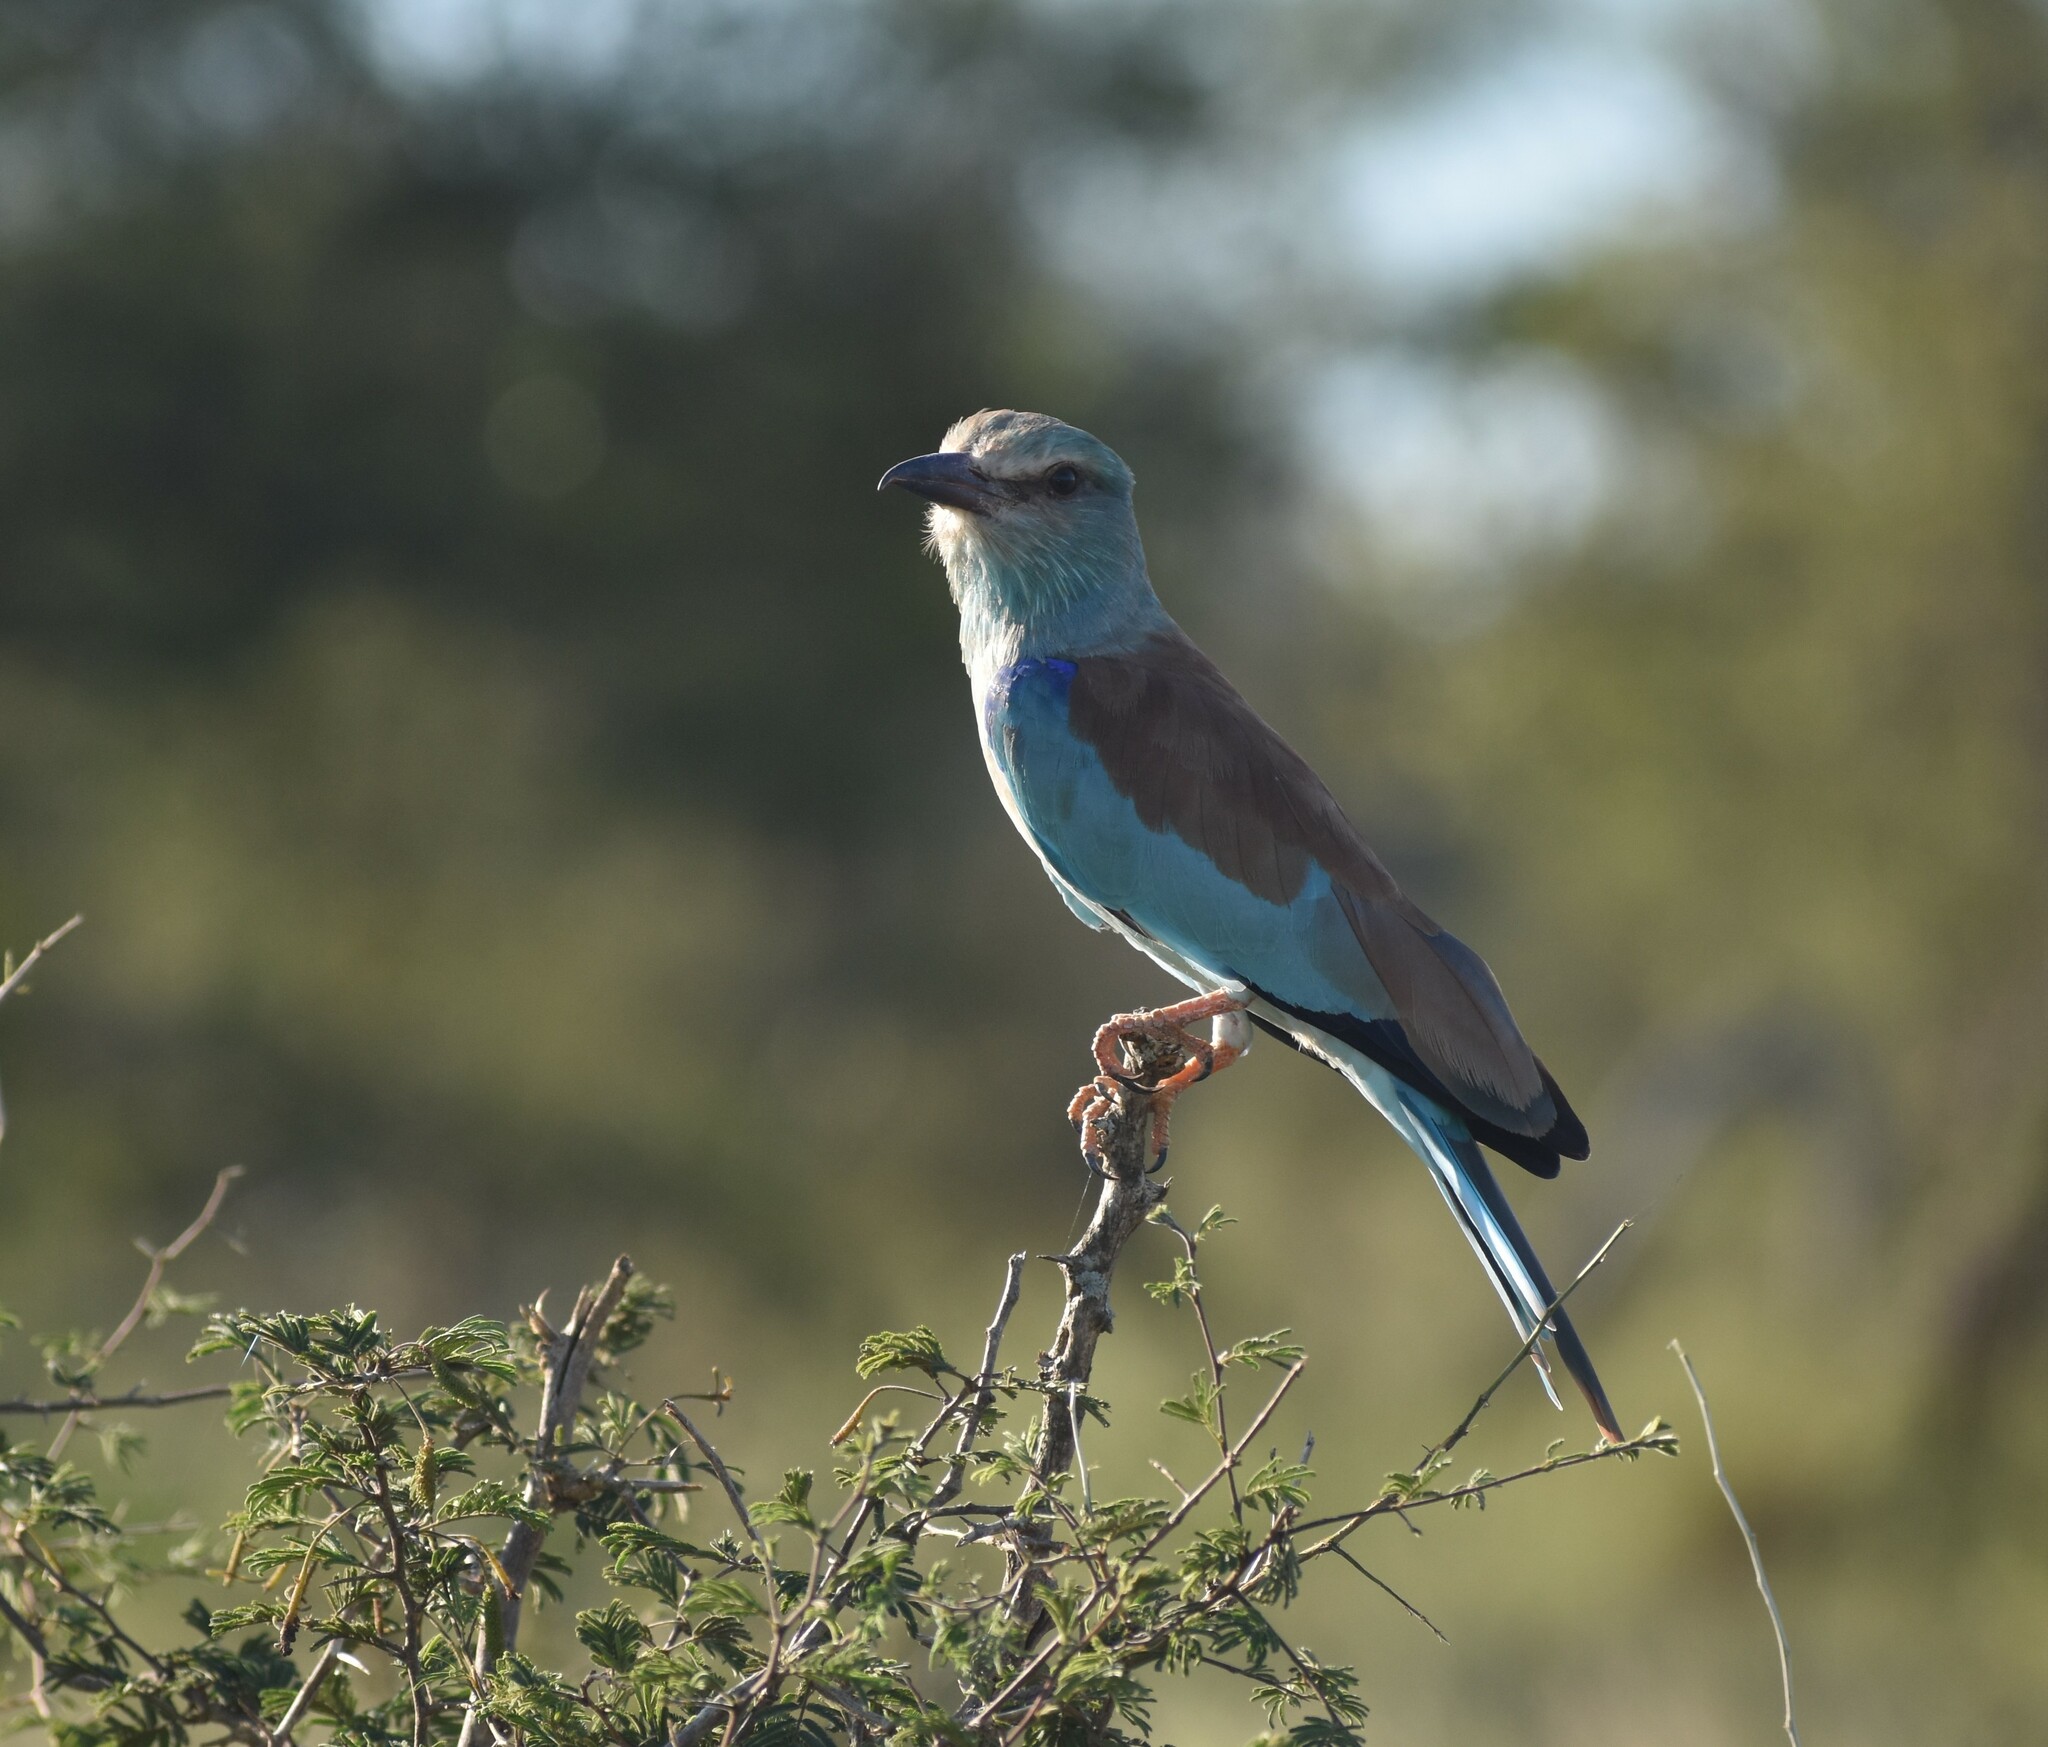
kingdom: Animalia
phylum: Chordata
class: Aves
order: Coraciiformes
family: Coraciidae
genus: Coracias
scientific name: Coracias garrulus
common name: European roller
